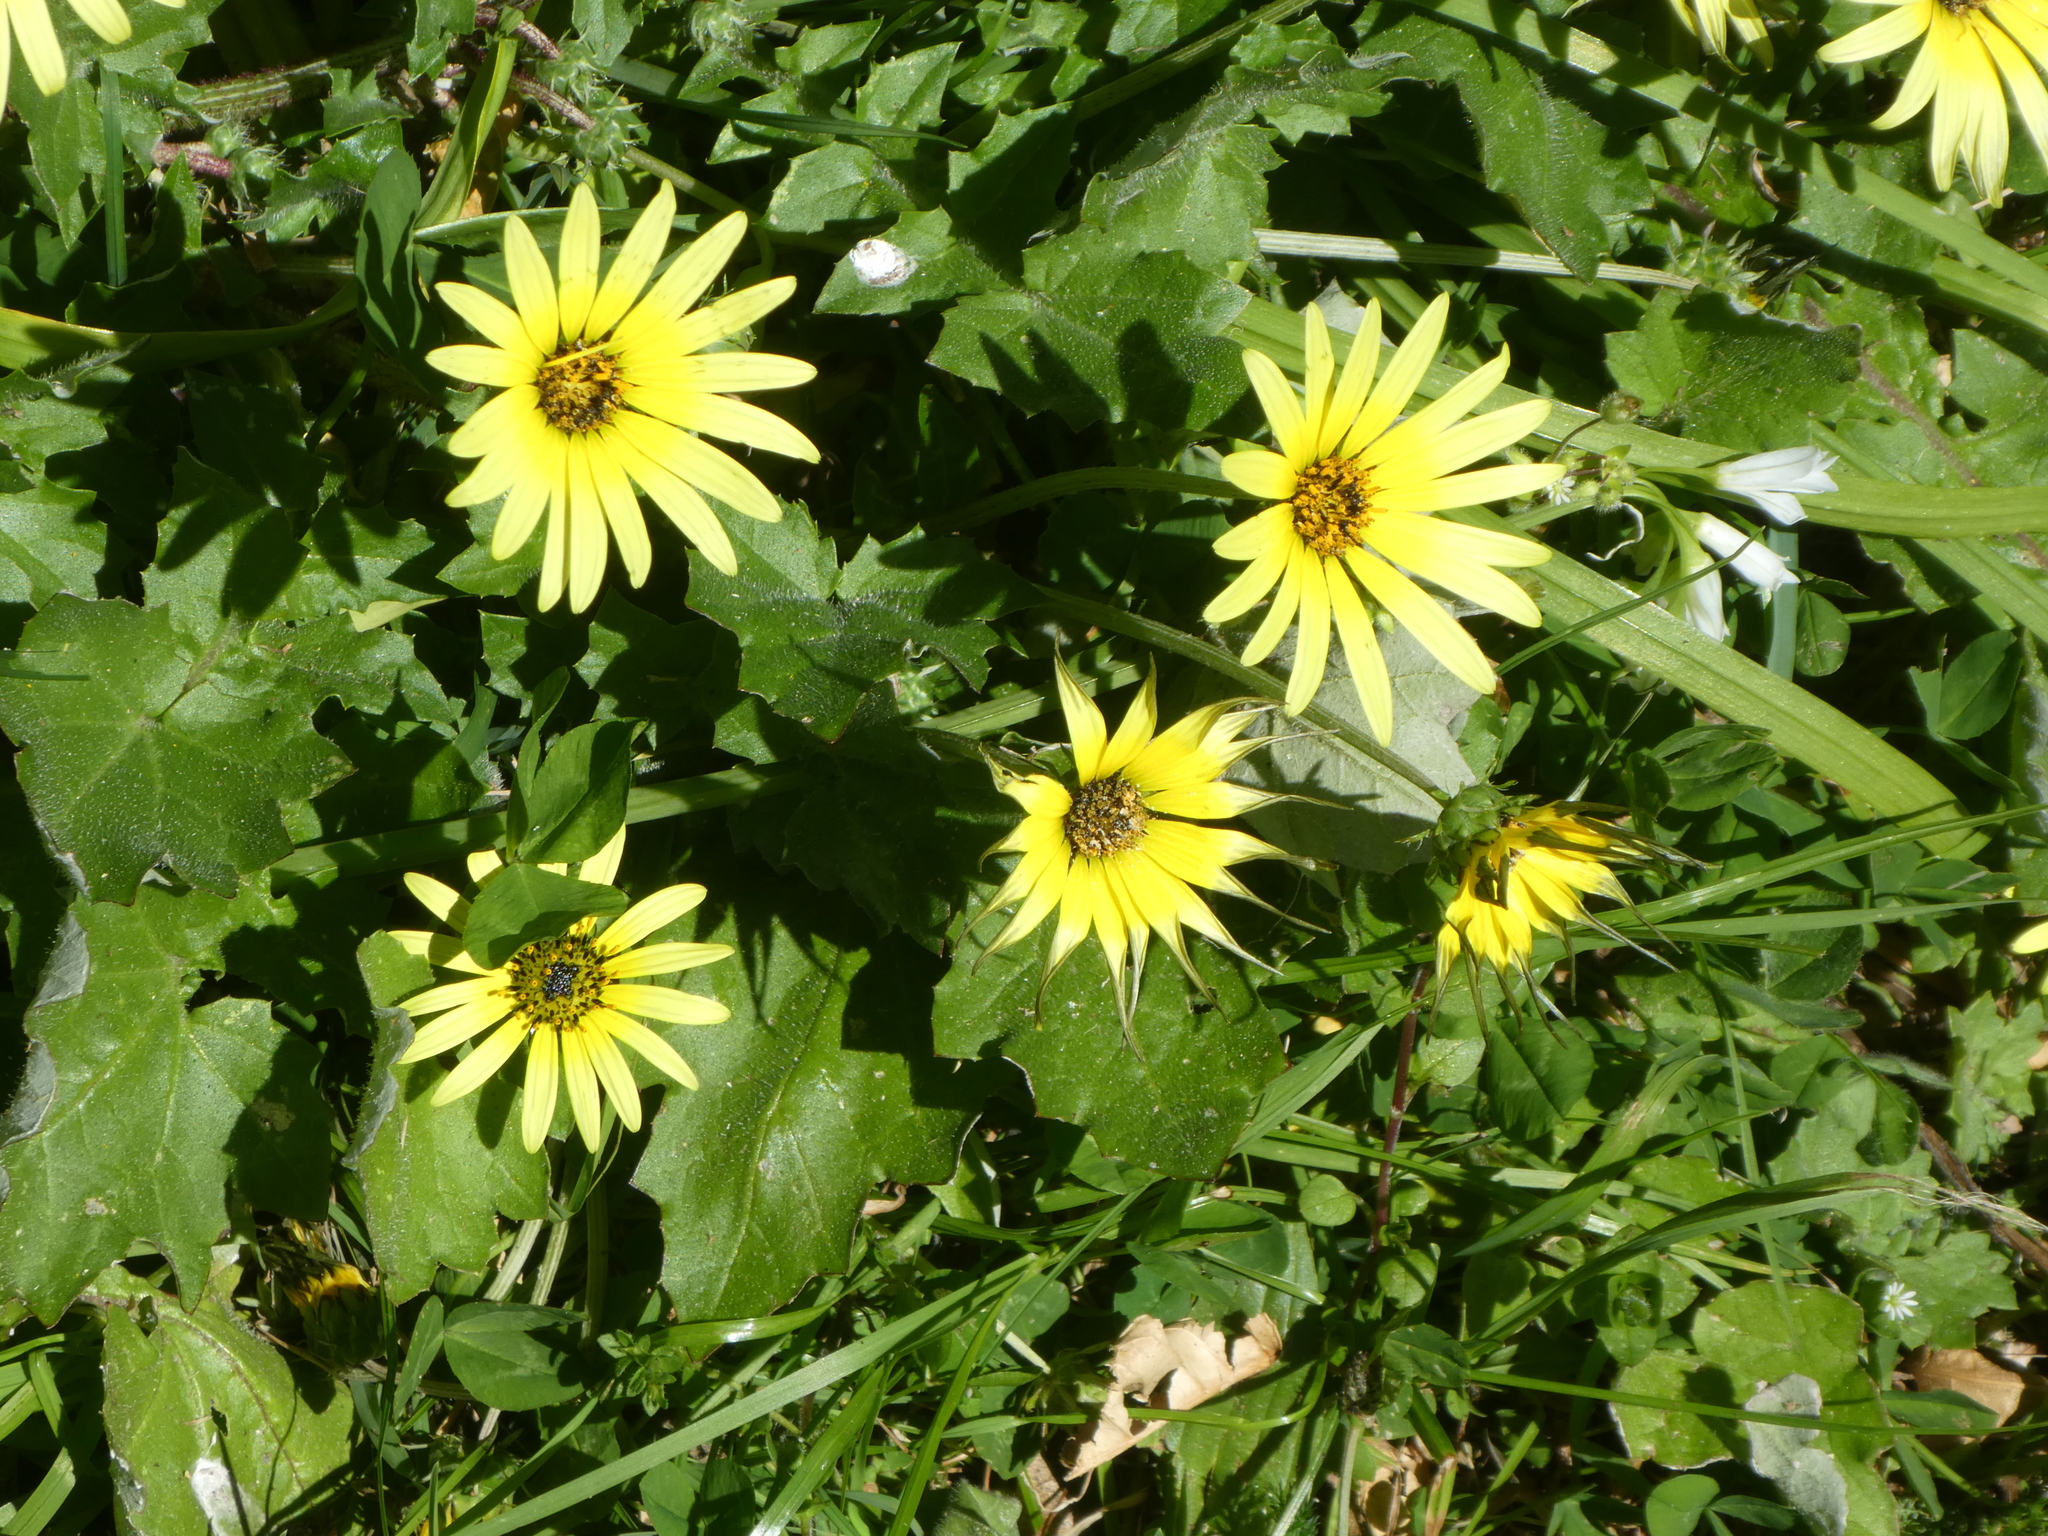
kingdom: Plantae
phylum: Tracheophyta
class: Magnoliopsida
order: Asterales
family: Asteraceae
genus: Arctotheca
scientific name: Arctotheca calendula
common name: Capeweed
